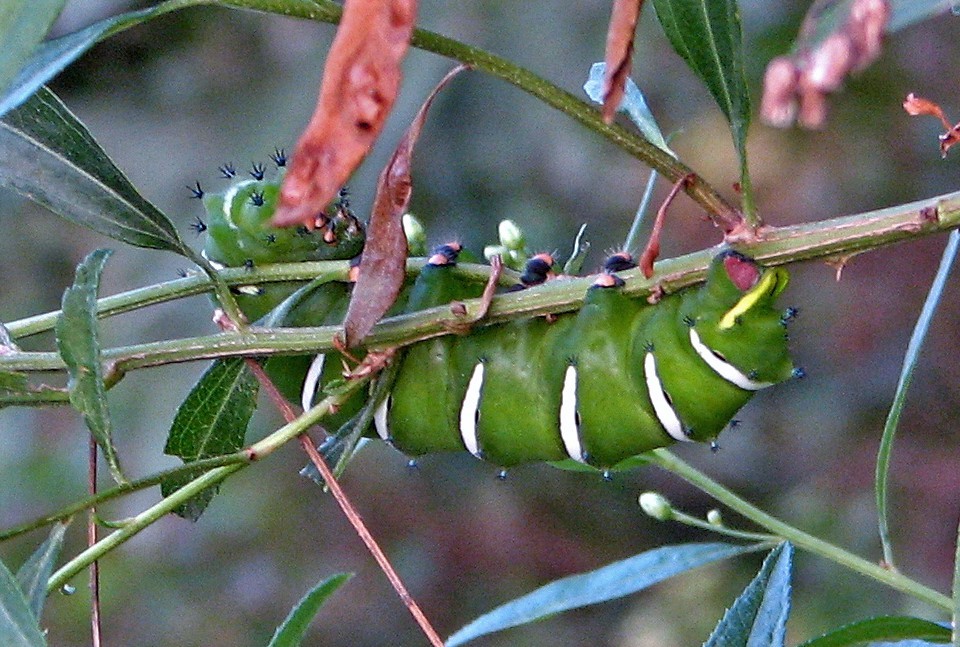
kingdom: Animalia
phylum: Arthropoda
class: Insecta
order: Lepidoptera
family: Saturniidae
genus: Rothschildia
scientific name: Rothschildia jacobaeae
